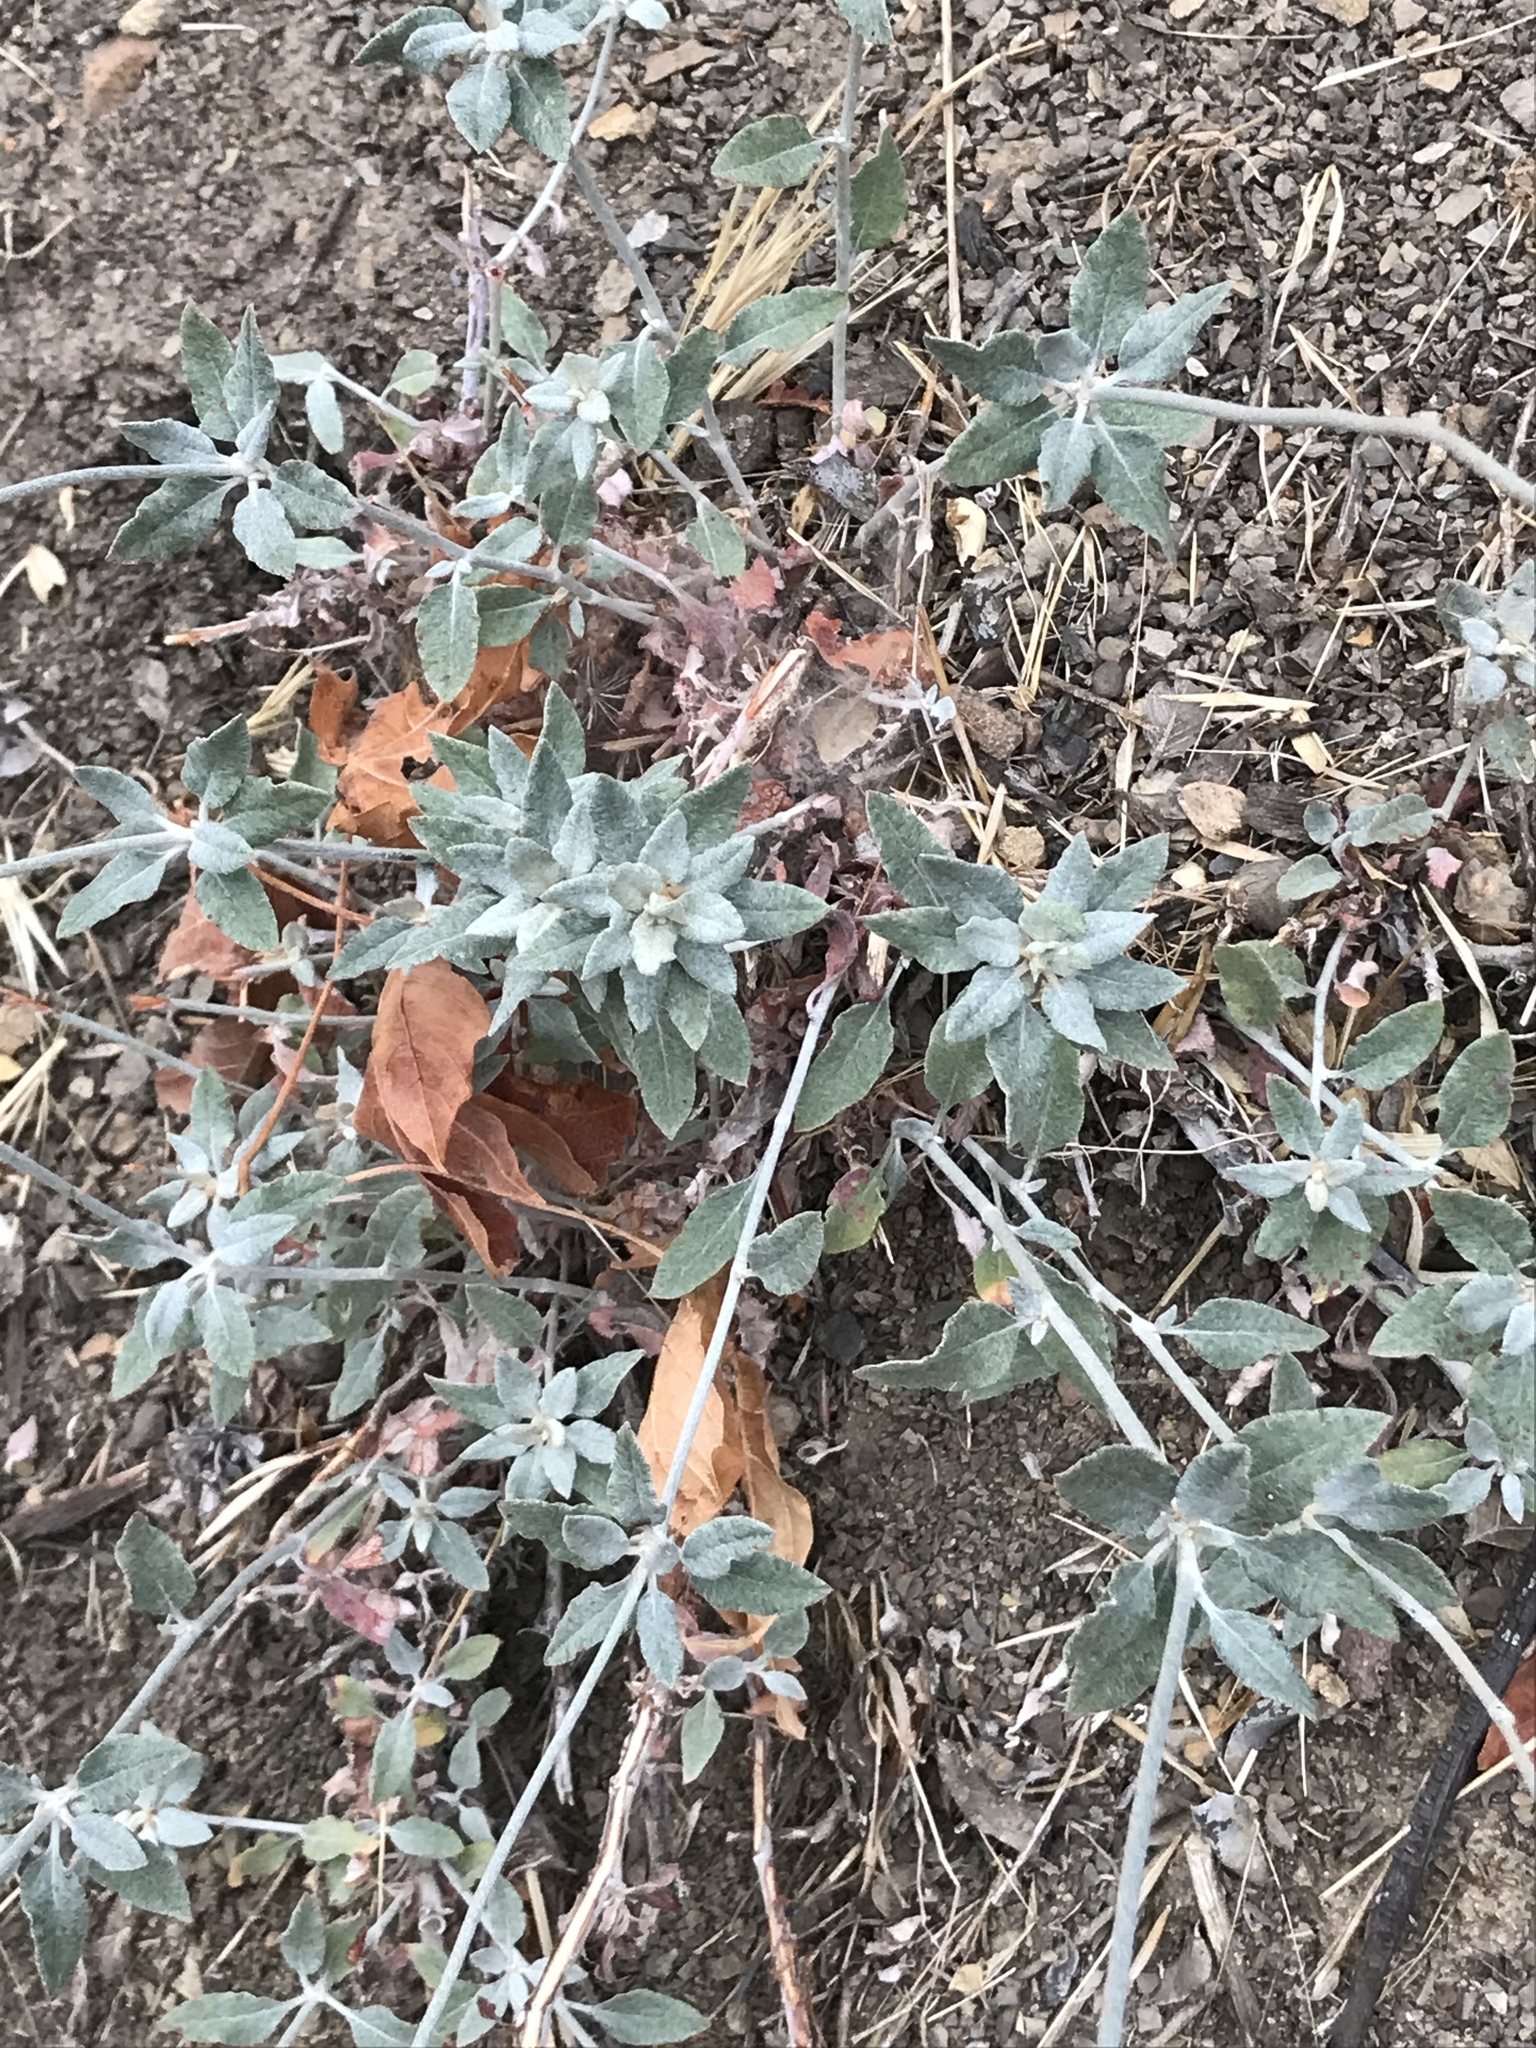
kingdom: Plantae
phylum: Tracheophyta
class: Magnoliopsida
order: Caryophyllales
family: Polygonaceae
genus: Eriogonum
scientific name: Eriogonum elongatum
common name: Long-stem wild buckwheat
